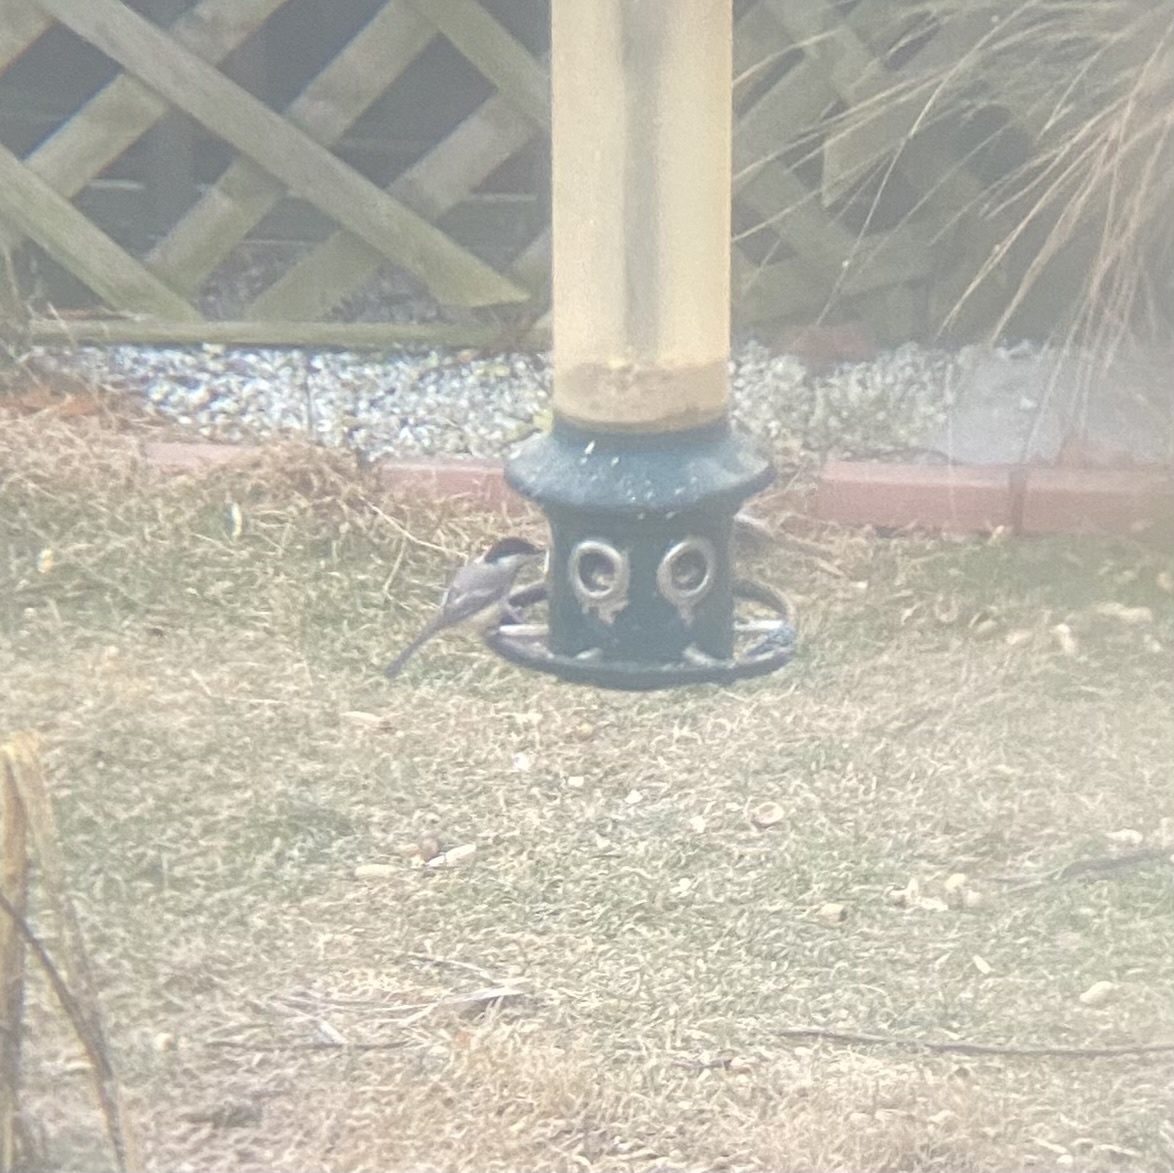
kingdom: Animalia
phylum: Chordata
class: Aves
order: Passeriformes
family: Paridae
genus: Poecile
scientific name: Poecile atricapillus
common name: Black-capped chickadee
